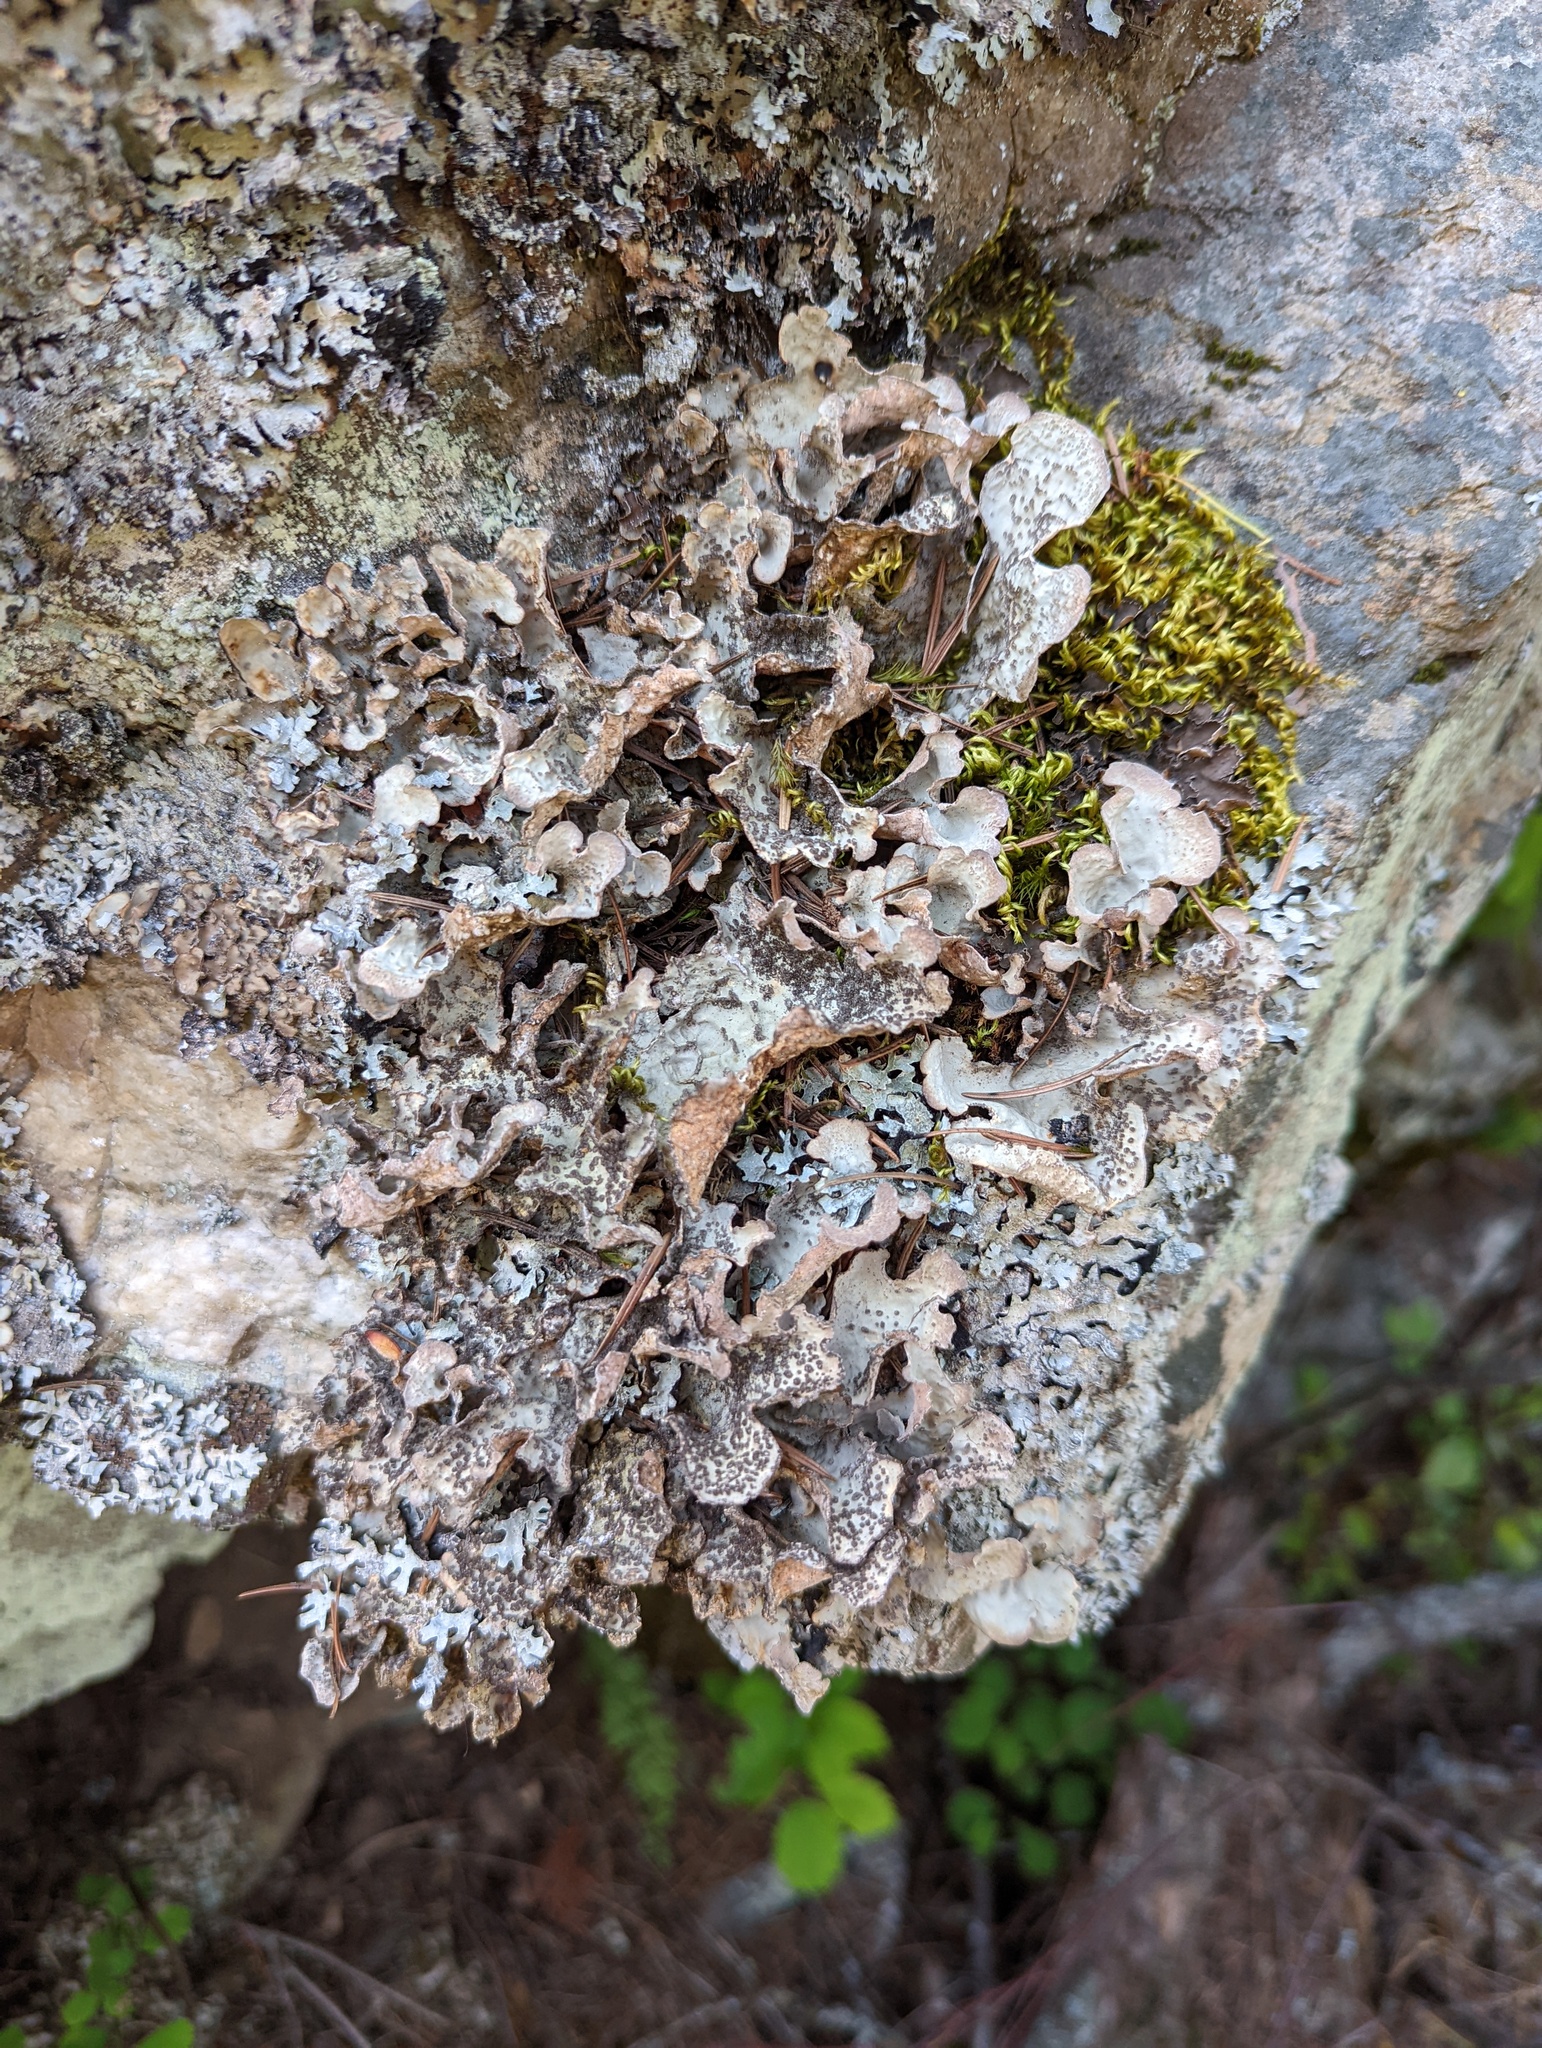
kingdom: Fungi
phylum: Ascomycota
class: Lecanoromycetes
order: Peltigerales
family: Lobariaceae
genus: Lobarina
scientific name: Lobarina scrobiculata
